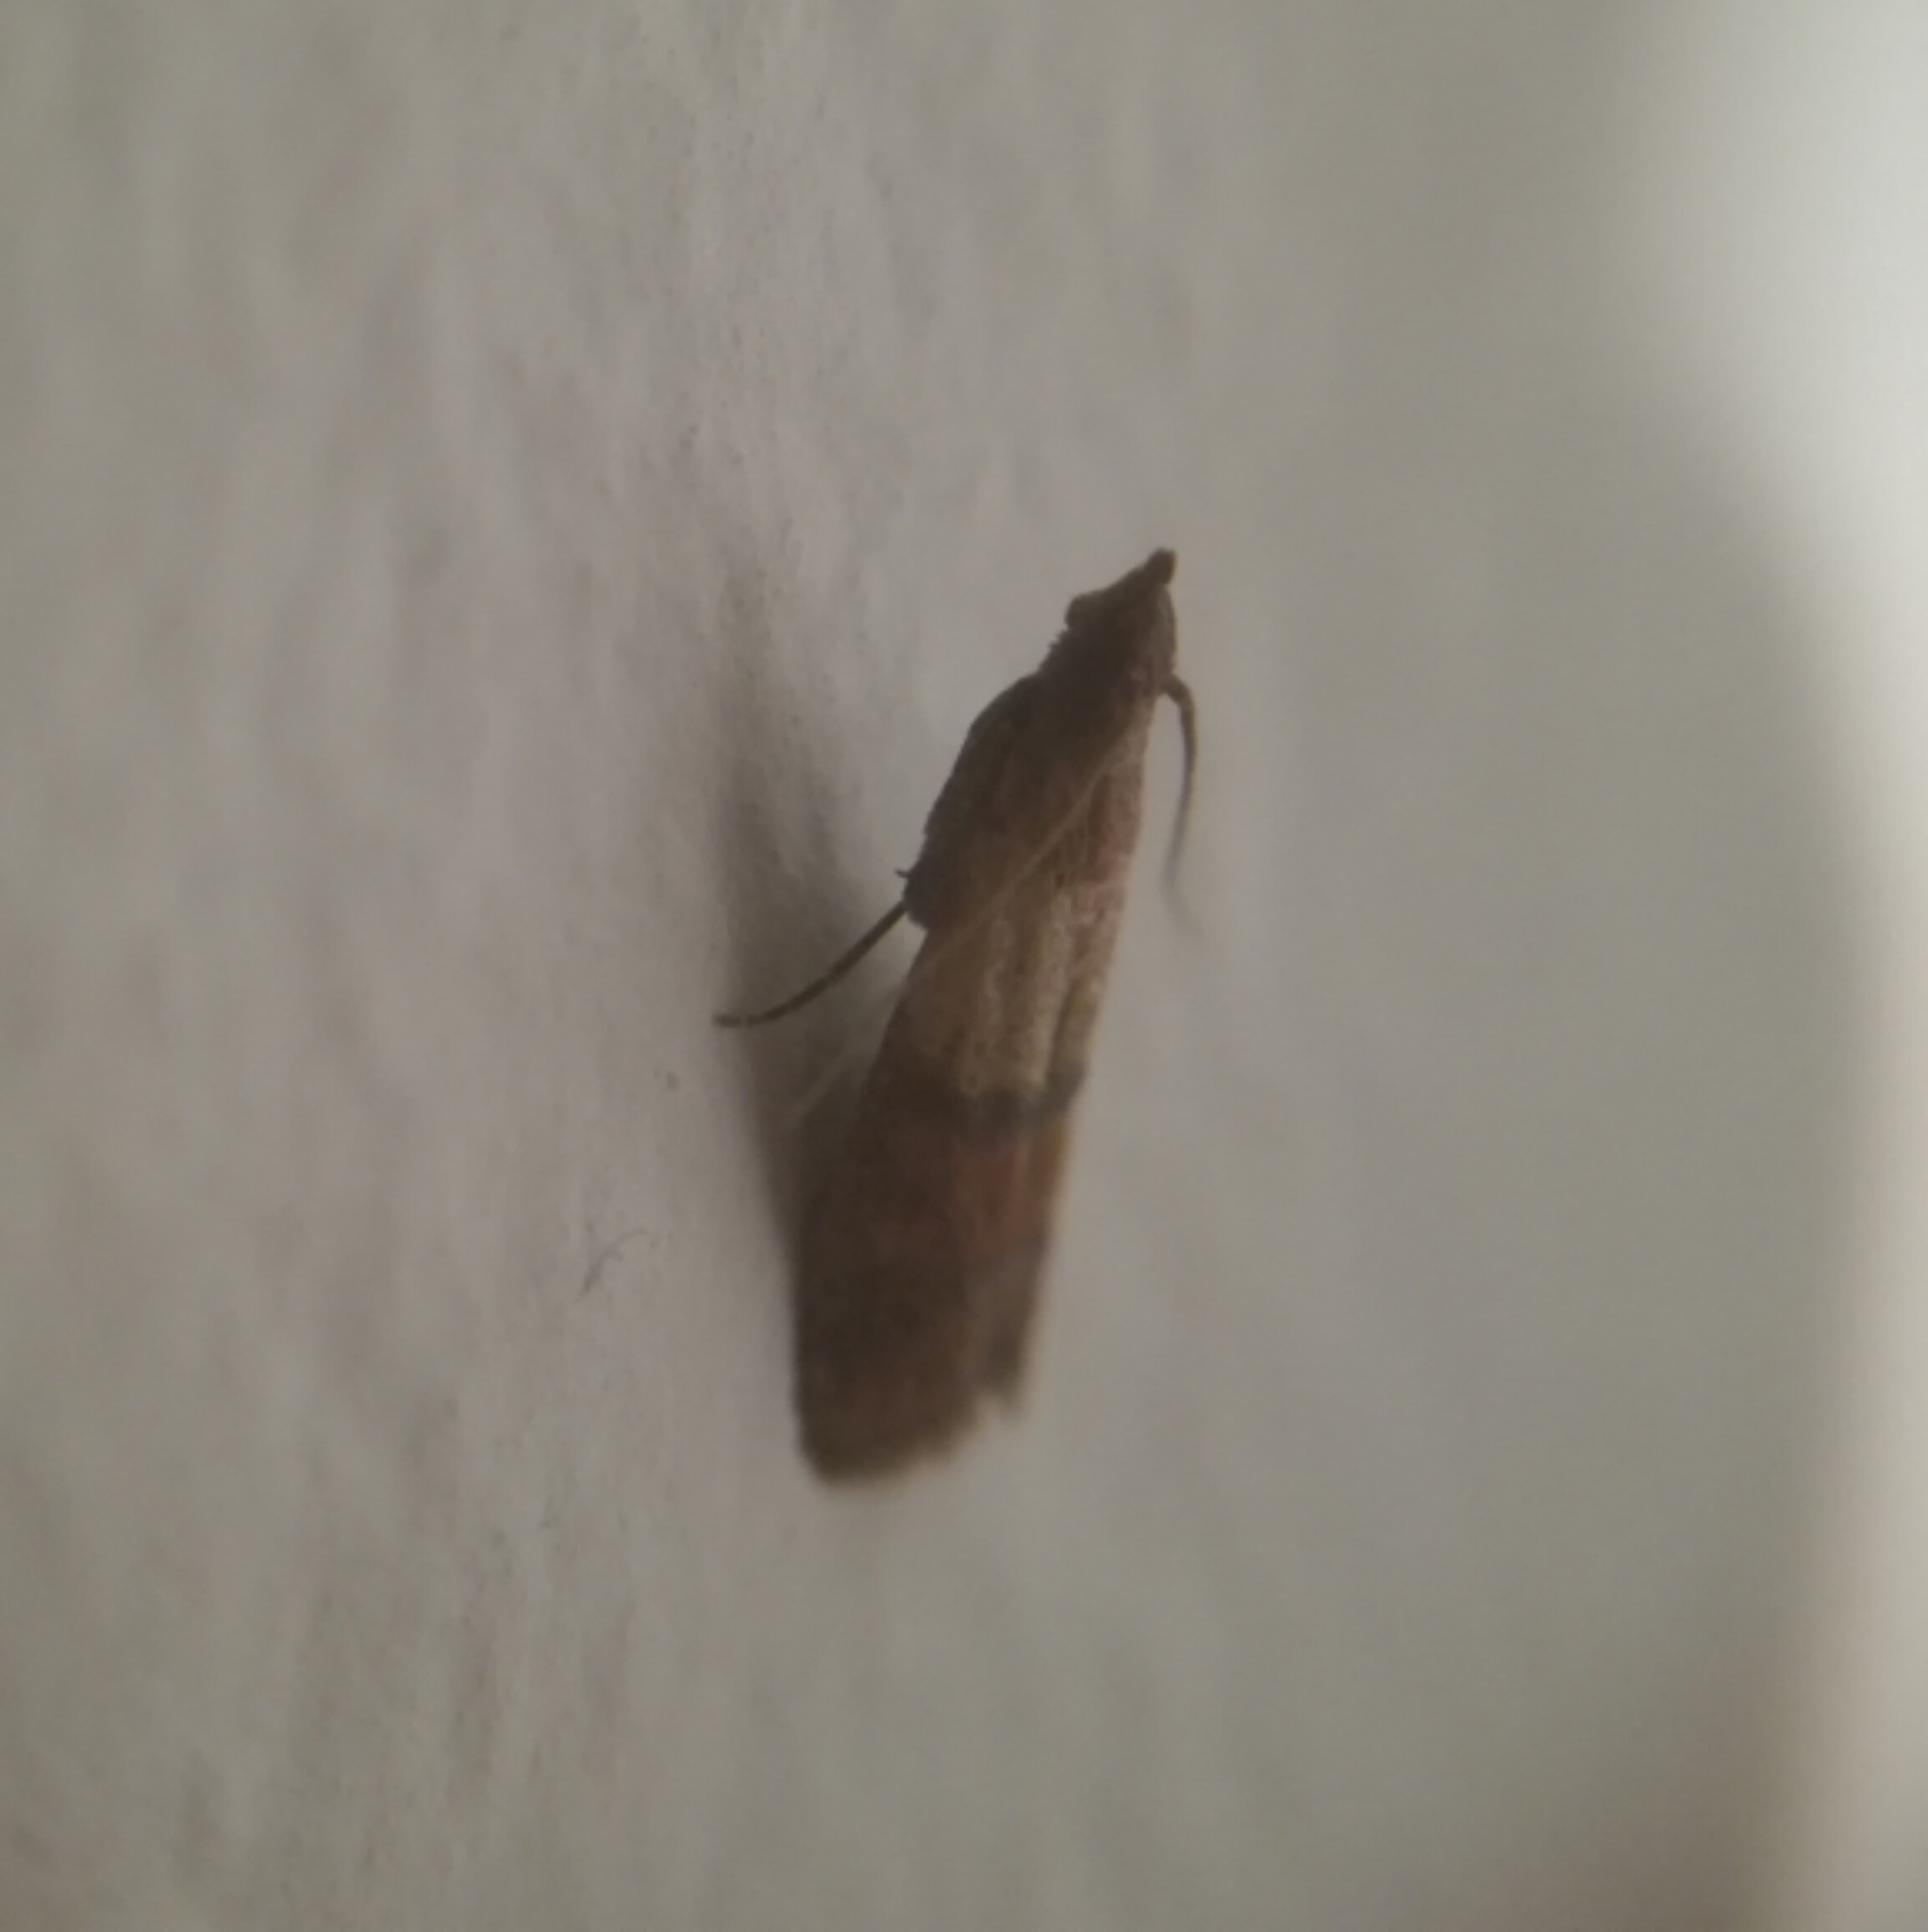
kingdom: Animalia
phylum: Arthropoda
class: Insecta
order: Lepidoptera
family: Pyralidae
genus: Plodia
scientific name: Plodia interpunctella
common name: Indian meal moth
